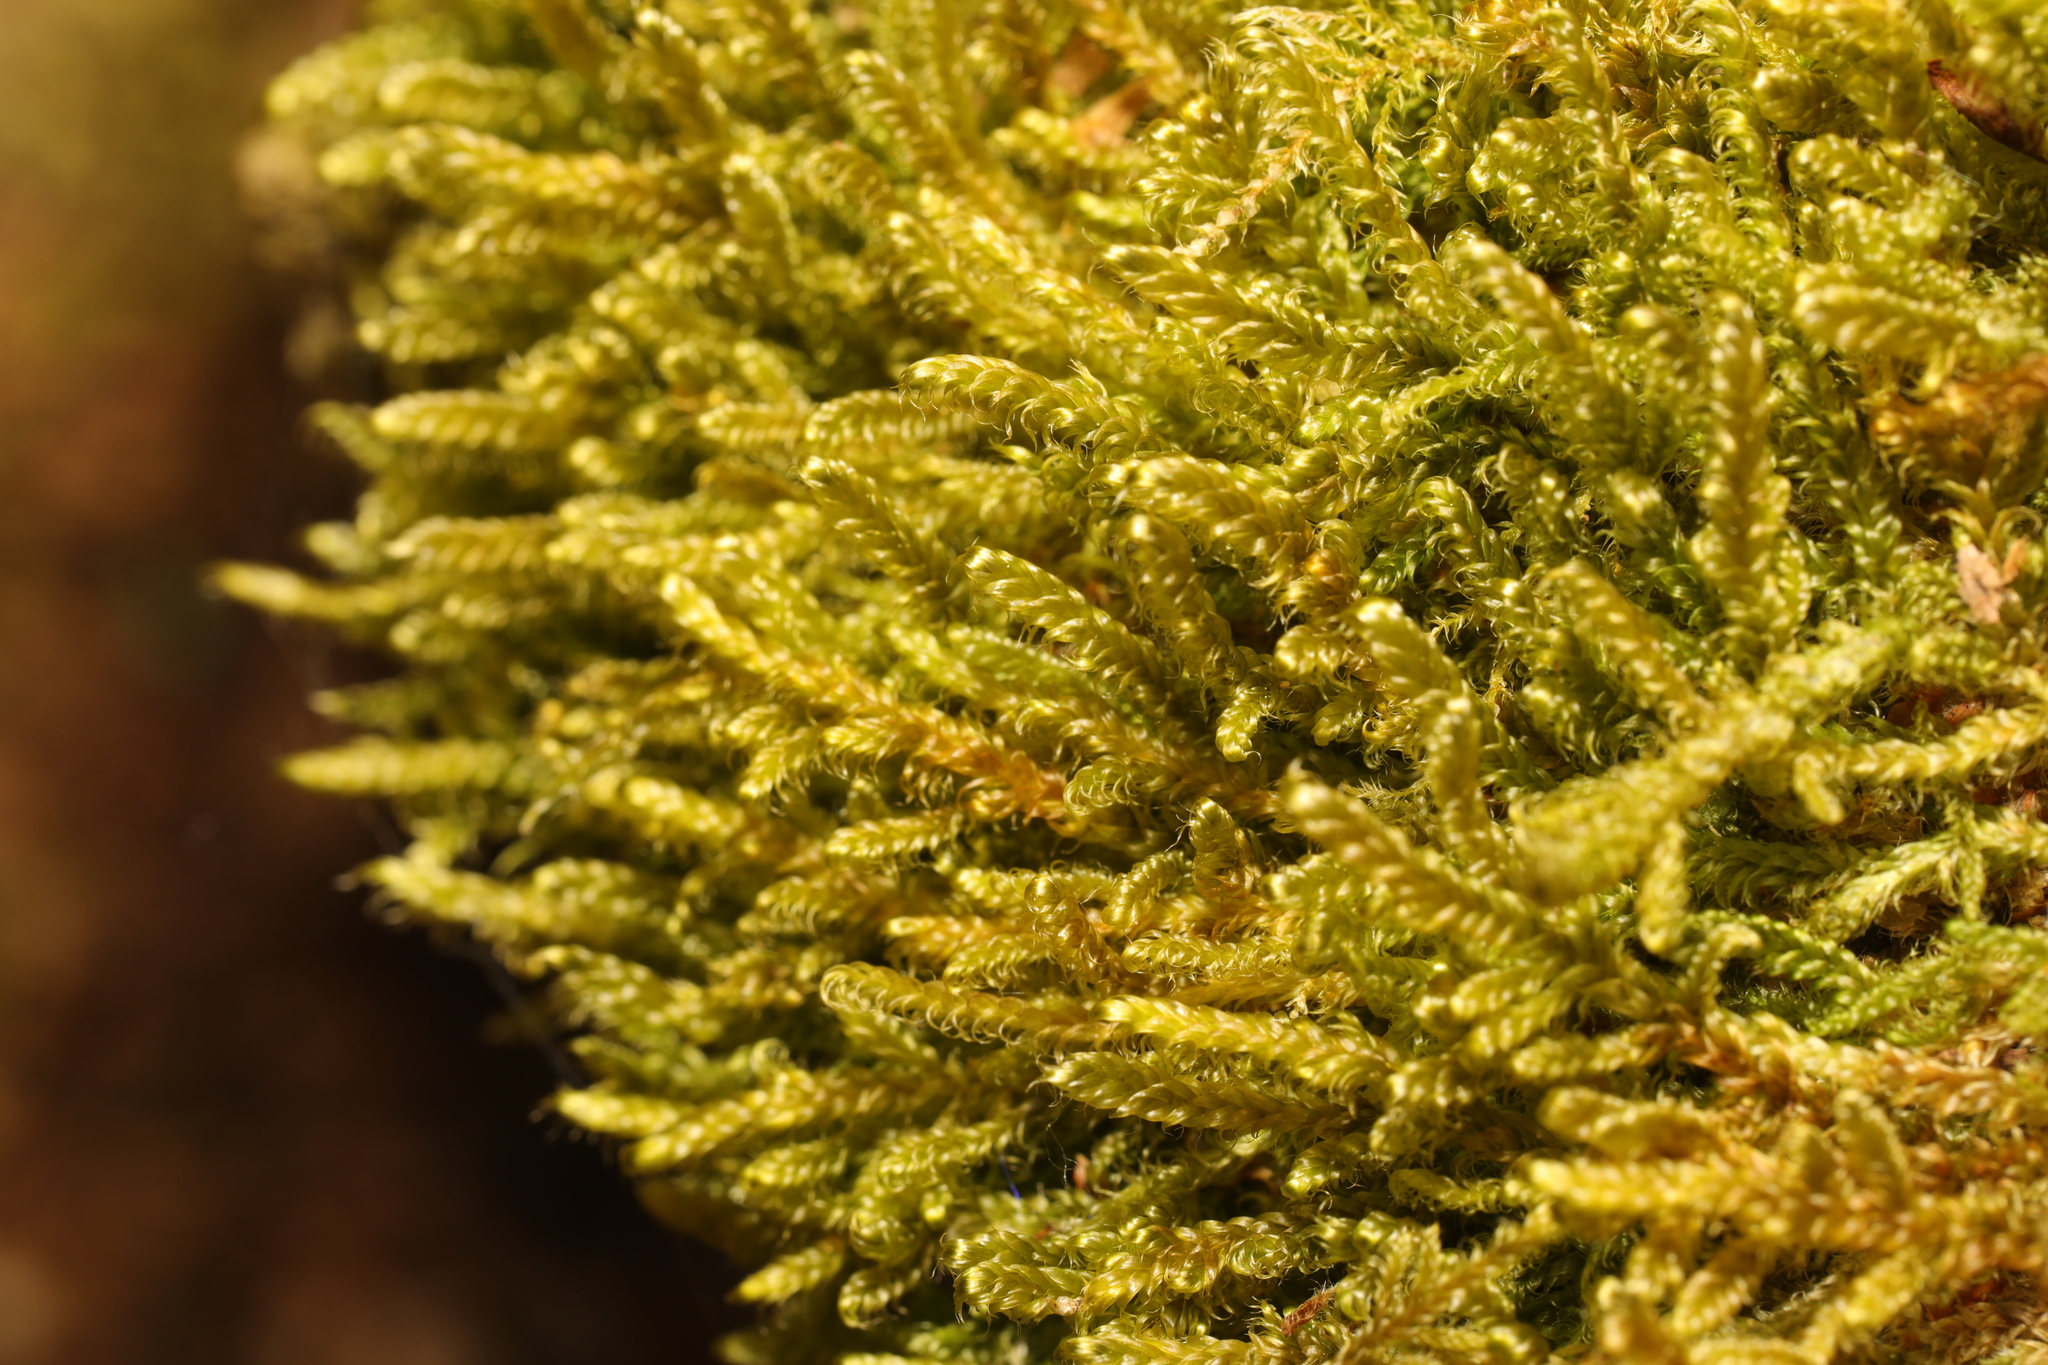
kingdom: Plantae
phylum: Bryophyta
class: Bryopsida
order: Hypnales
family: Hypnaceae
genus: Hypnum
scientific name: Hypnum cupressiforme
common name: Cypress-leaved plait-moss
